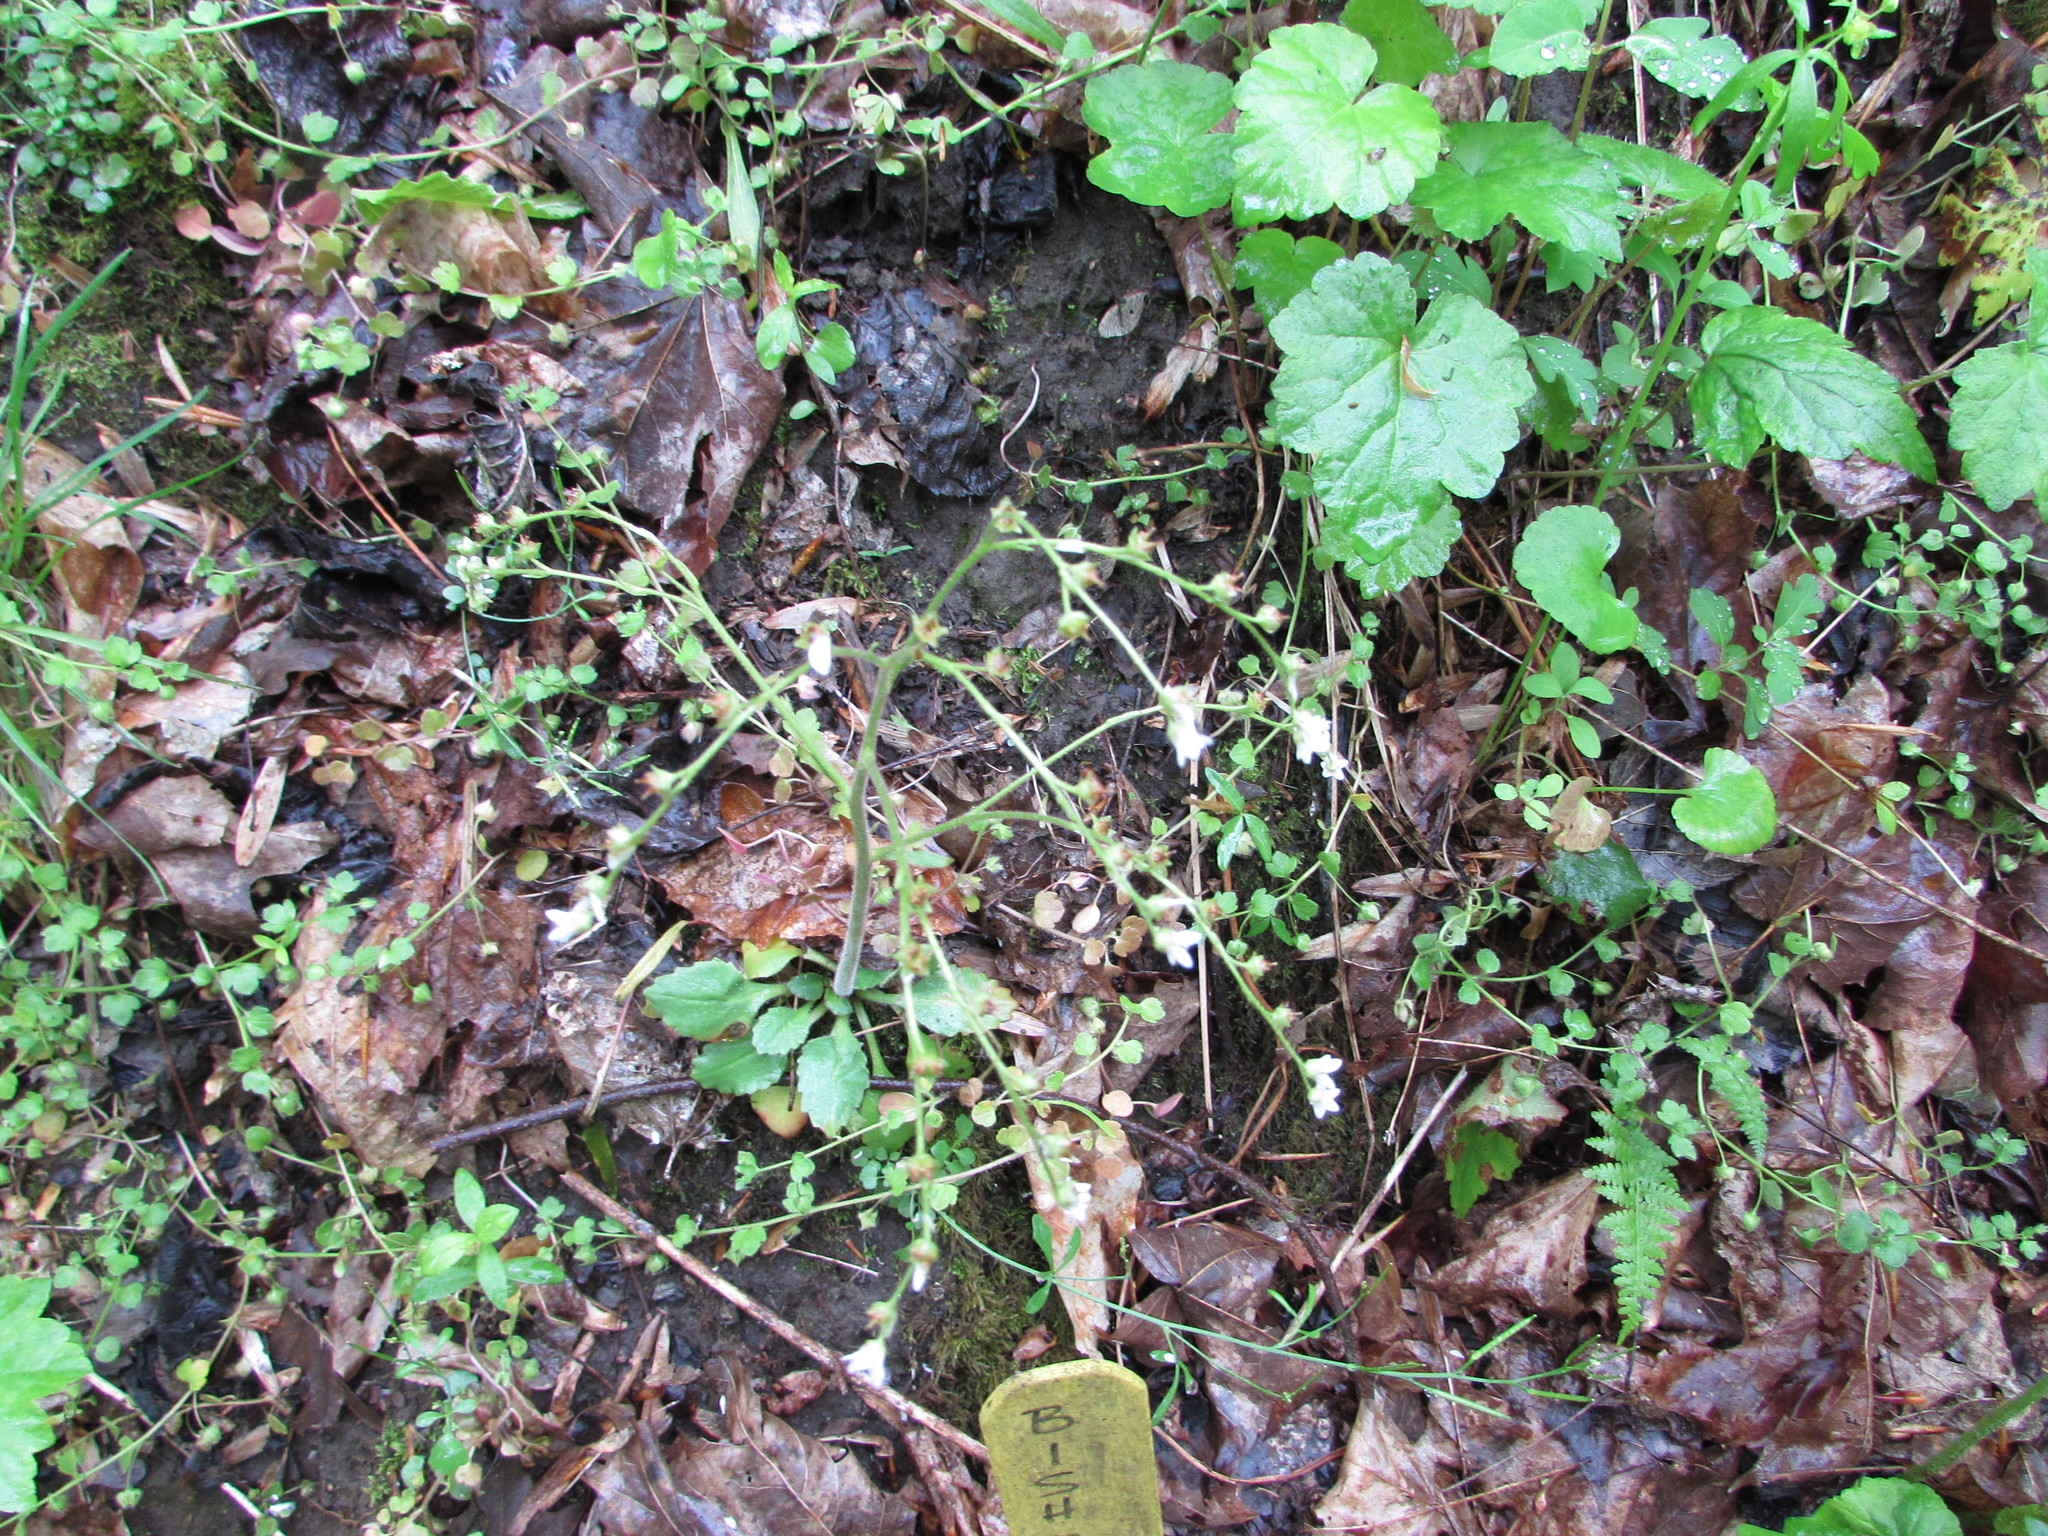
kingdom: Plantae
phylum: Tracheophyta
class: Magnoliopsida
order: Saxifragales
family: Saxifragaceae
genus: Micranthes
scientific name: Micranthes virginiensis
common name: Early saxifrage
